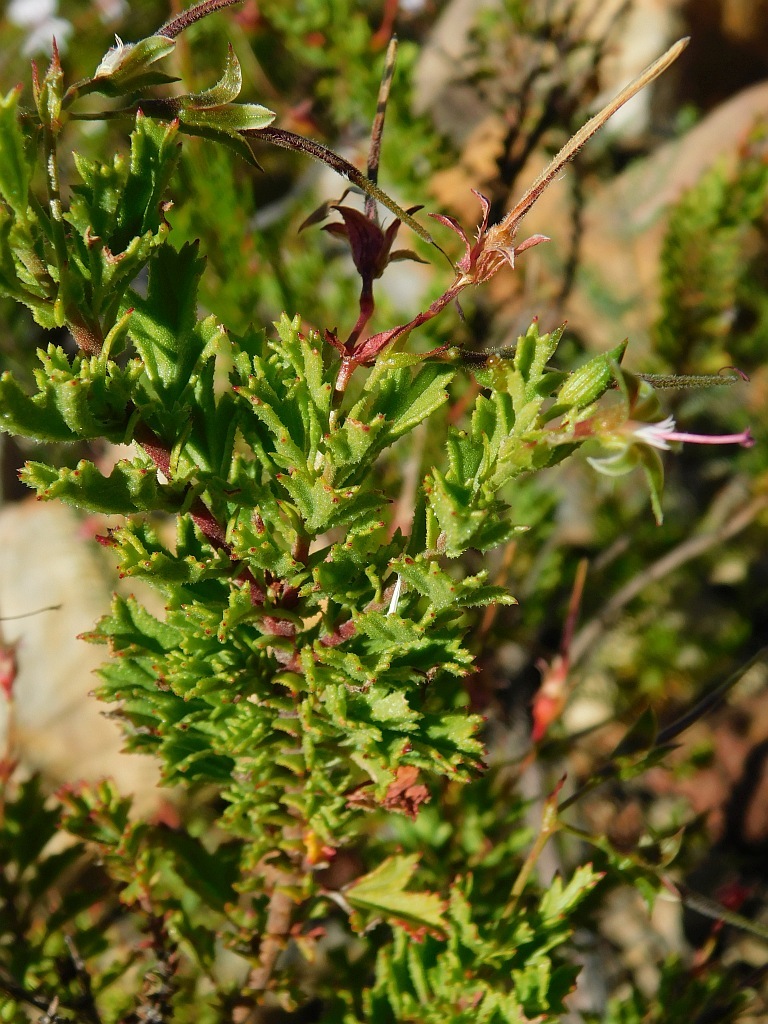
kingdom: Plantae
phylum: Tracheophyta
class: Magnoliopsida
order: Geraniales
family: Geraniaceae
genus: Pelargonium
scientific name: Pelargonium hermaniifolium
